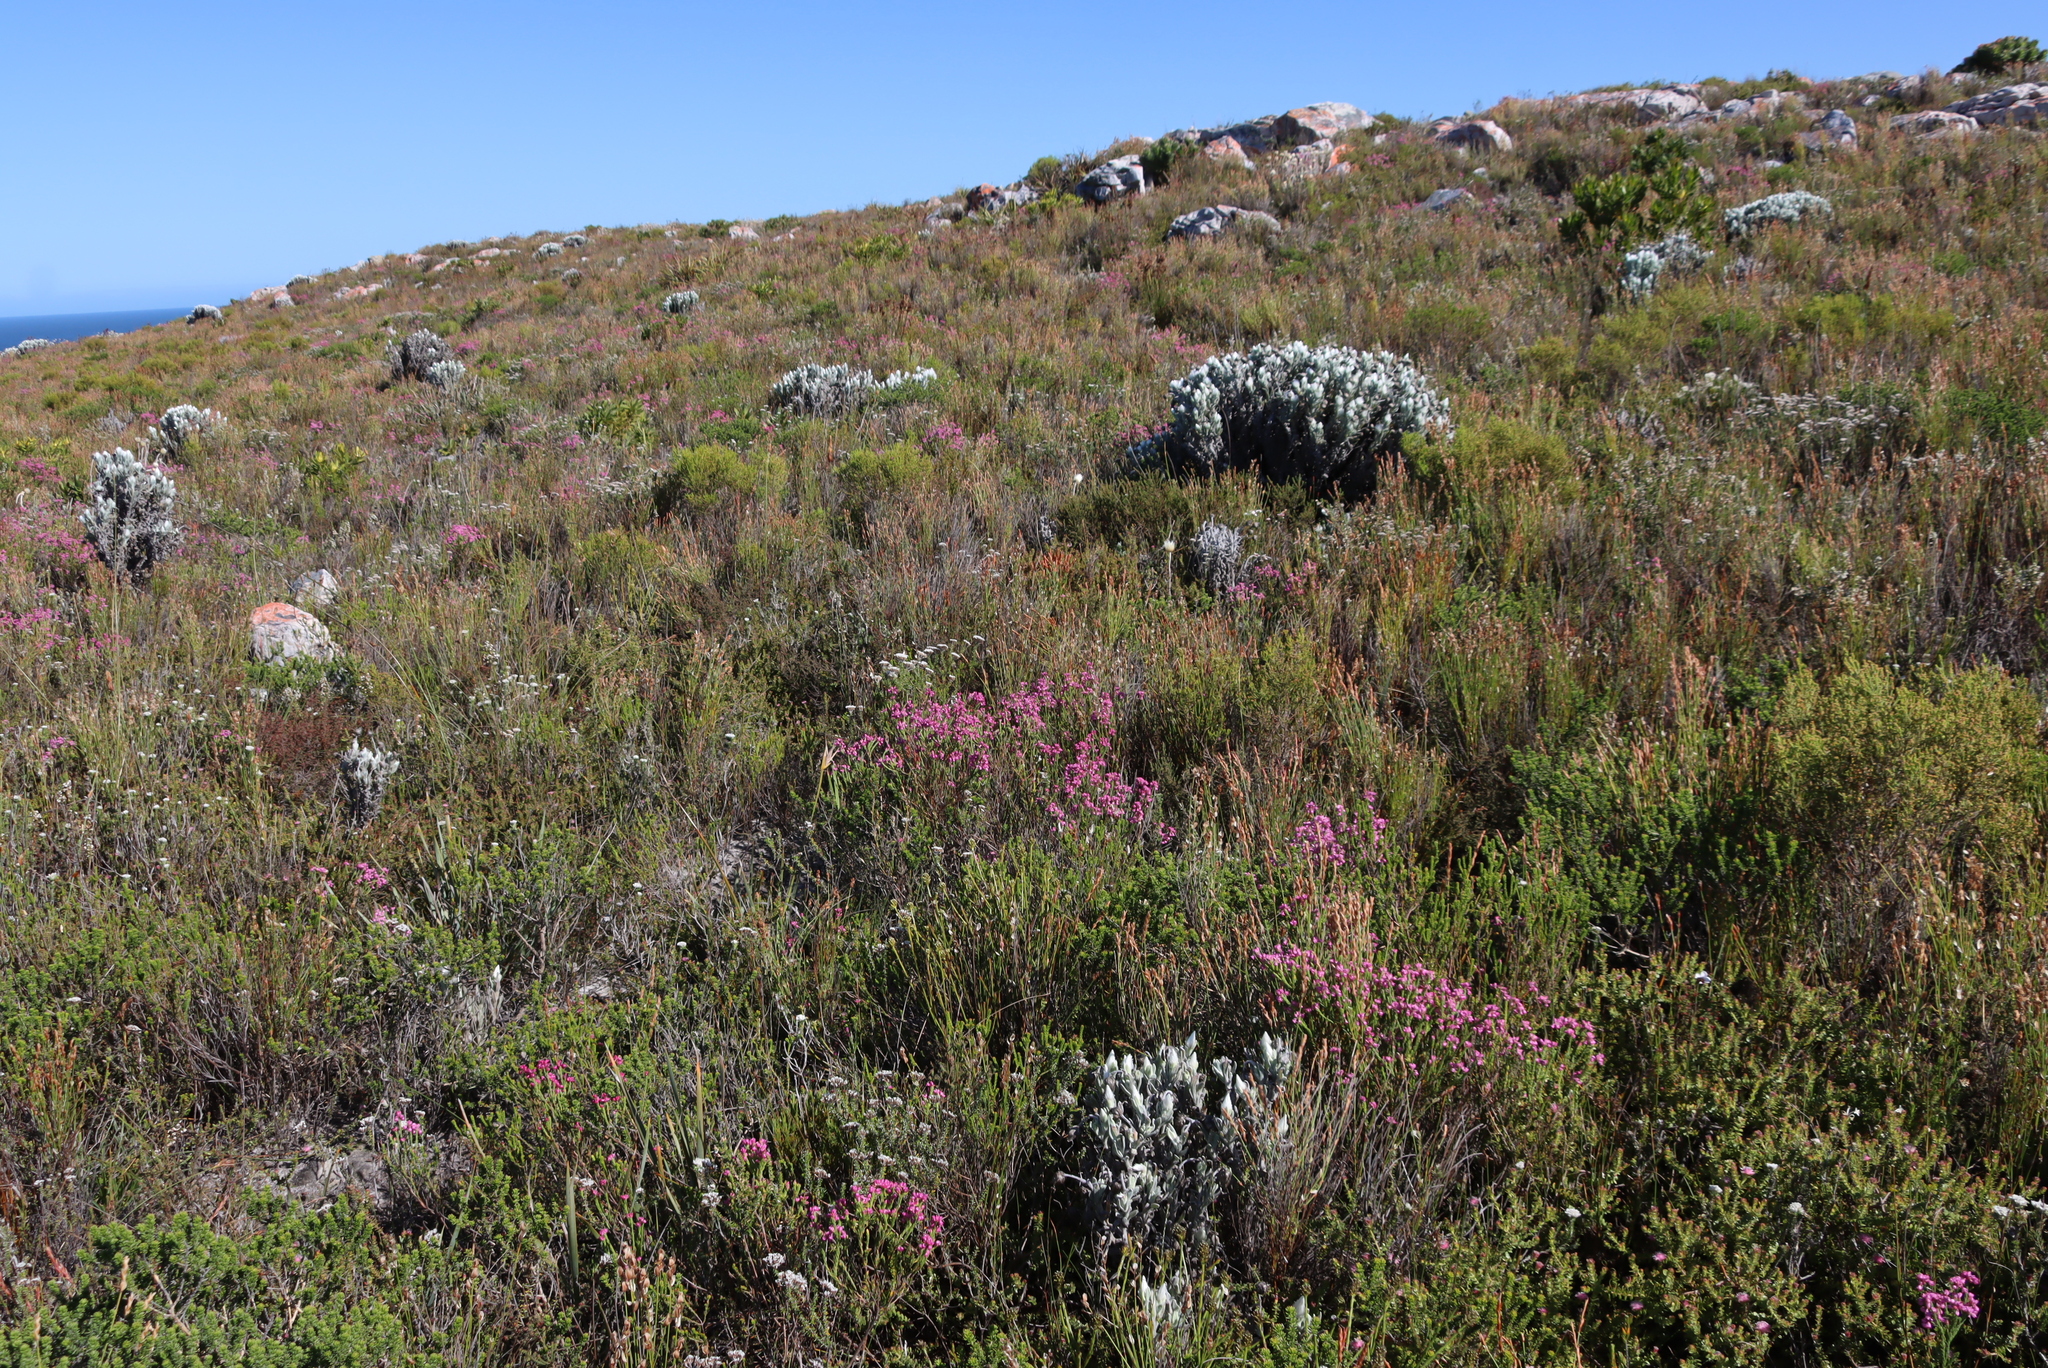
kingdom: Plantae
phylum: Tracheophyta
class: Magnoliopsida
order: Ericales
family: Ericaceae
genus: Erica
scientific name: Erica corifolia
